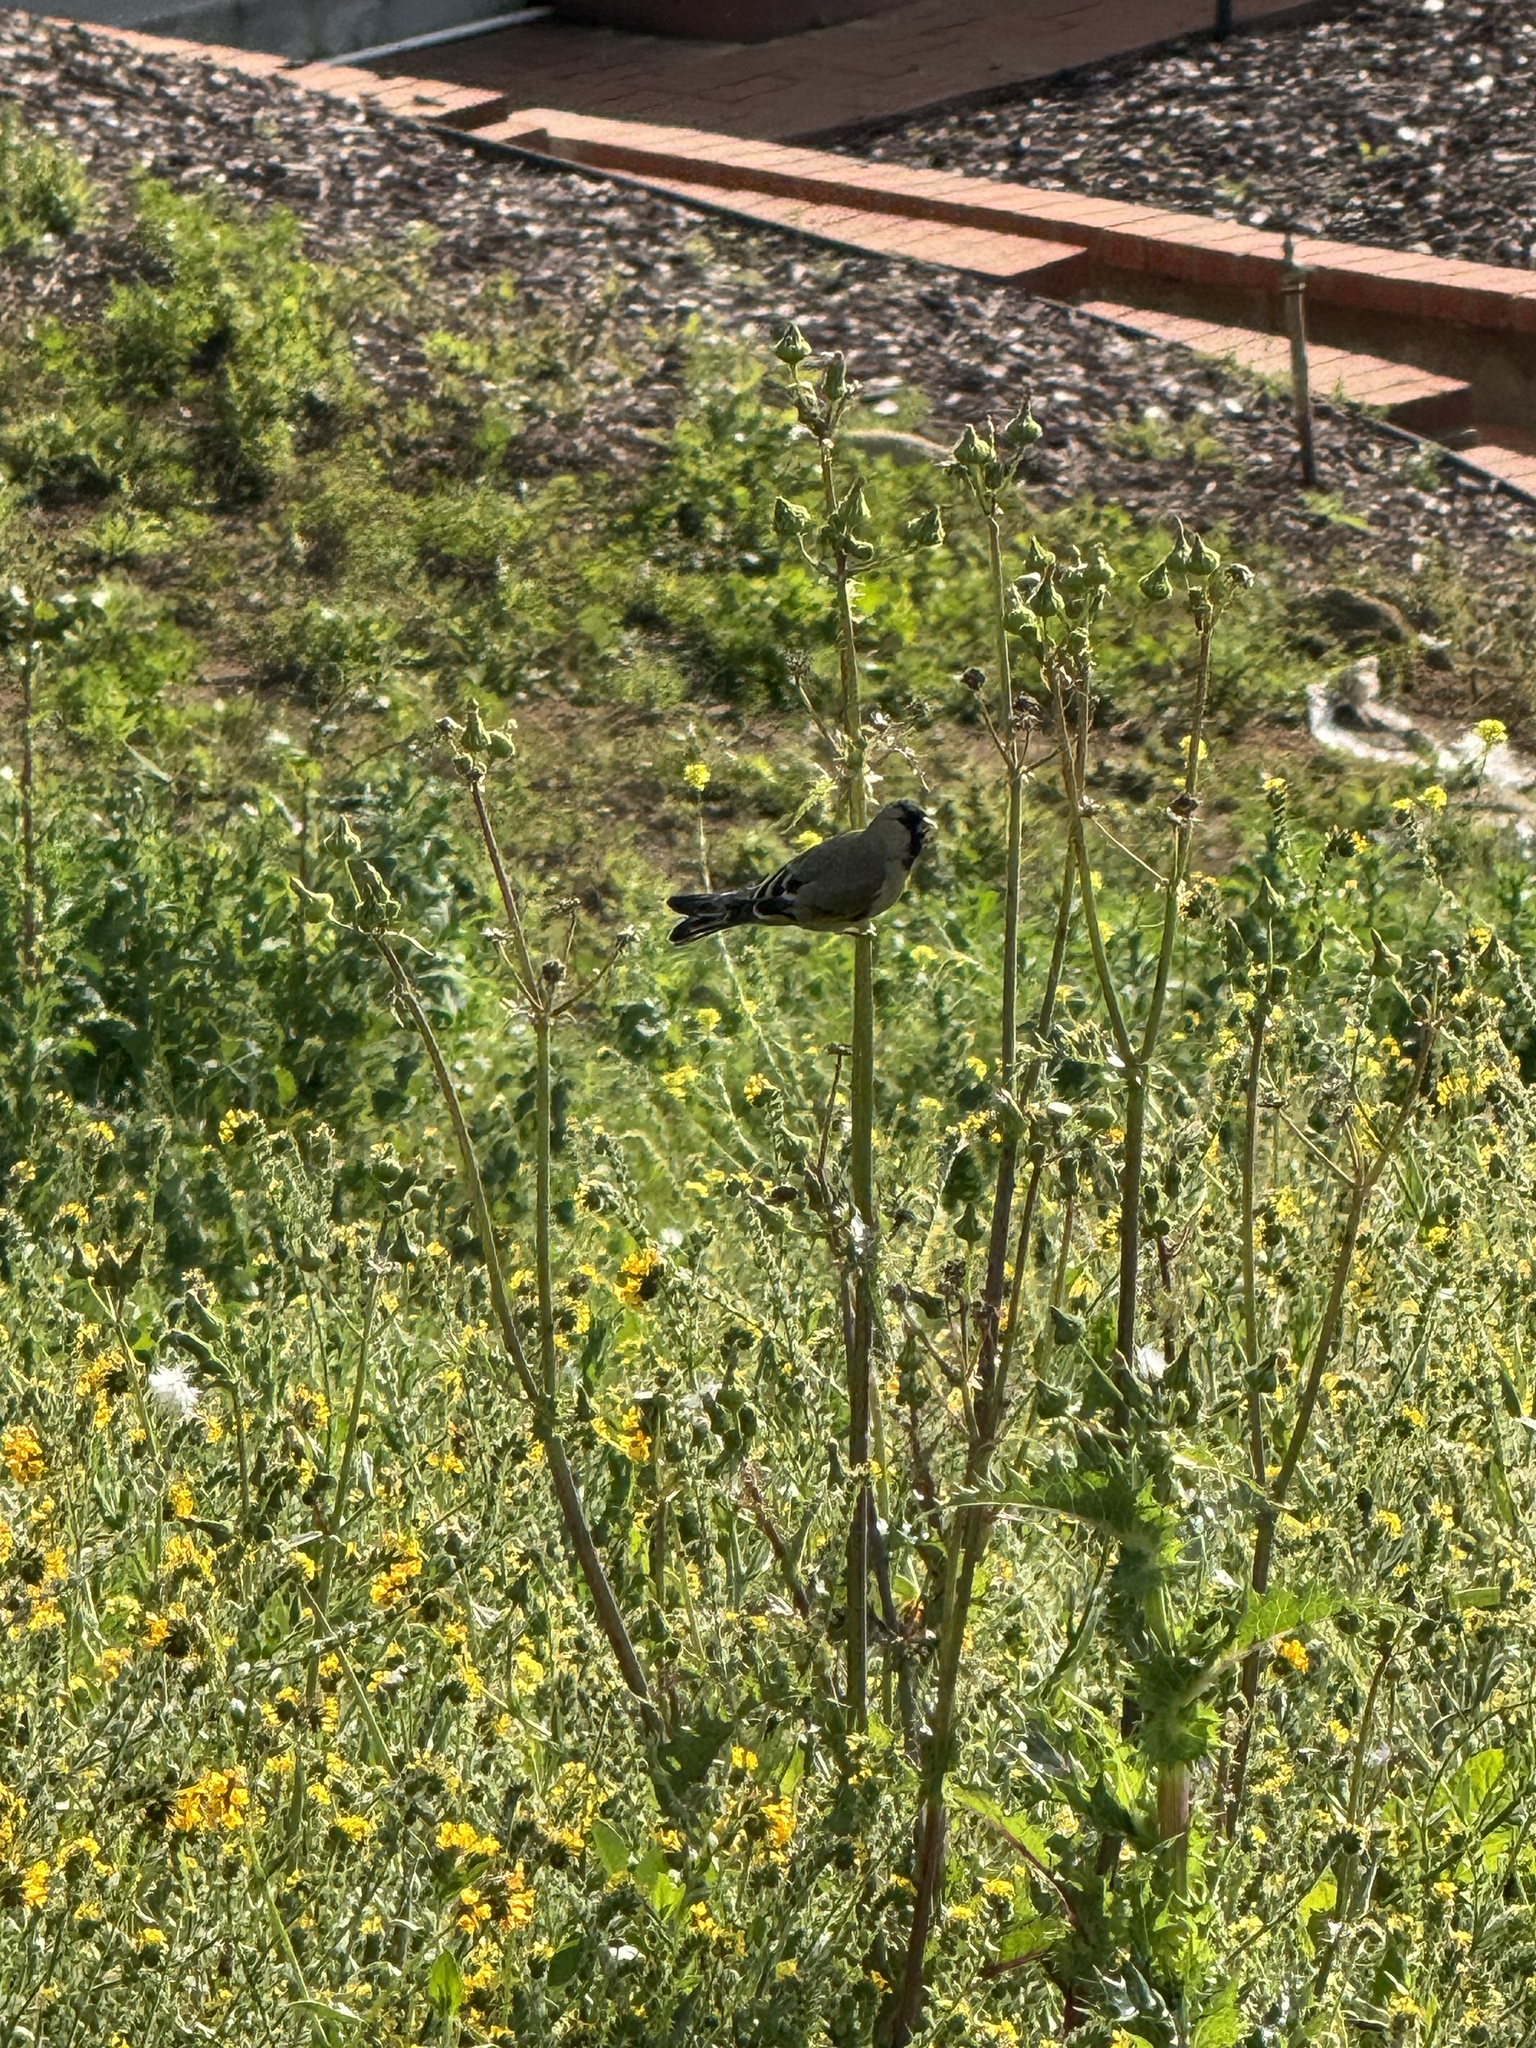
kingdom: Animalia
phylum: Chordata
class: Aves
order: Passeriformes
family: Fringillidae
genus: Spinus
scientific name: Spinus lawrencei
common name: Lawrence's goldfinch
